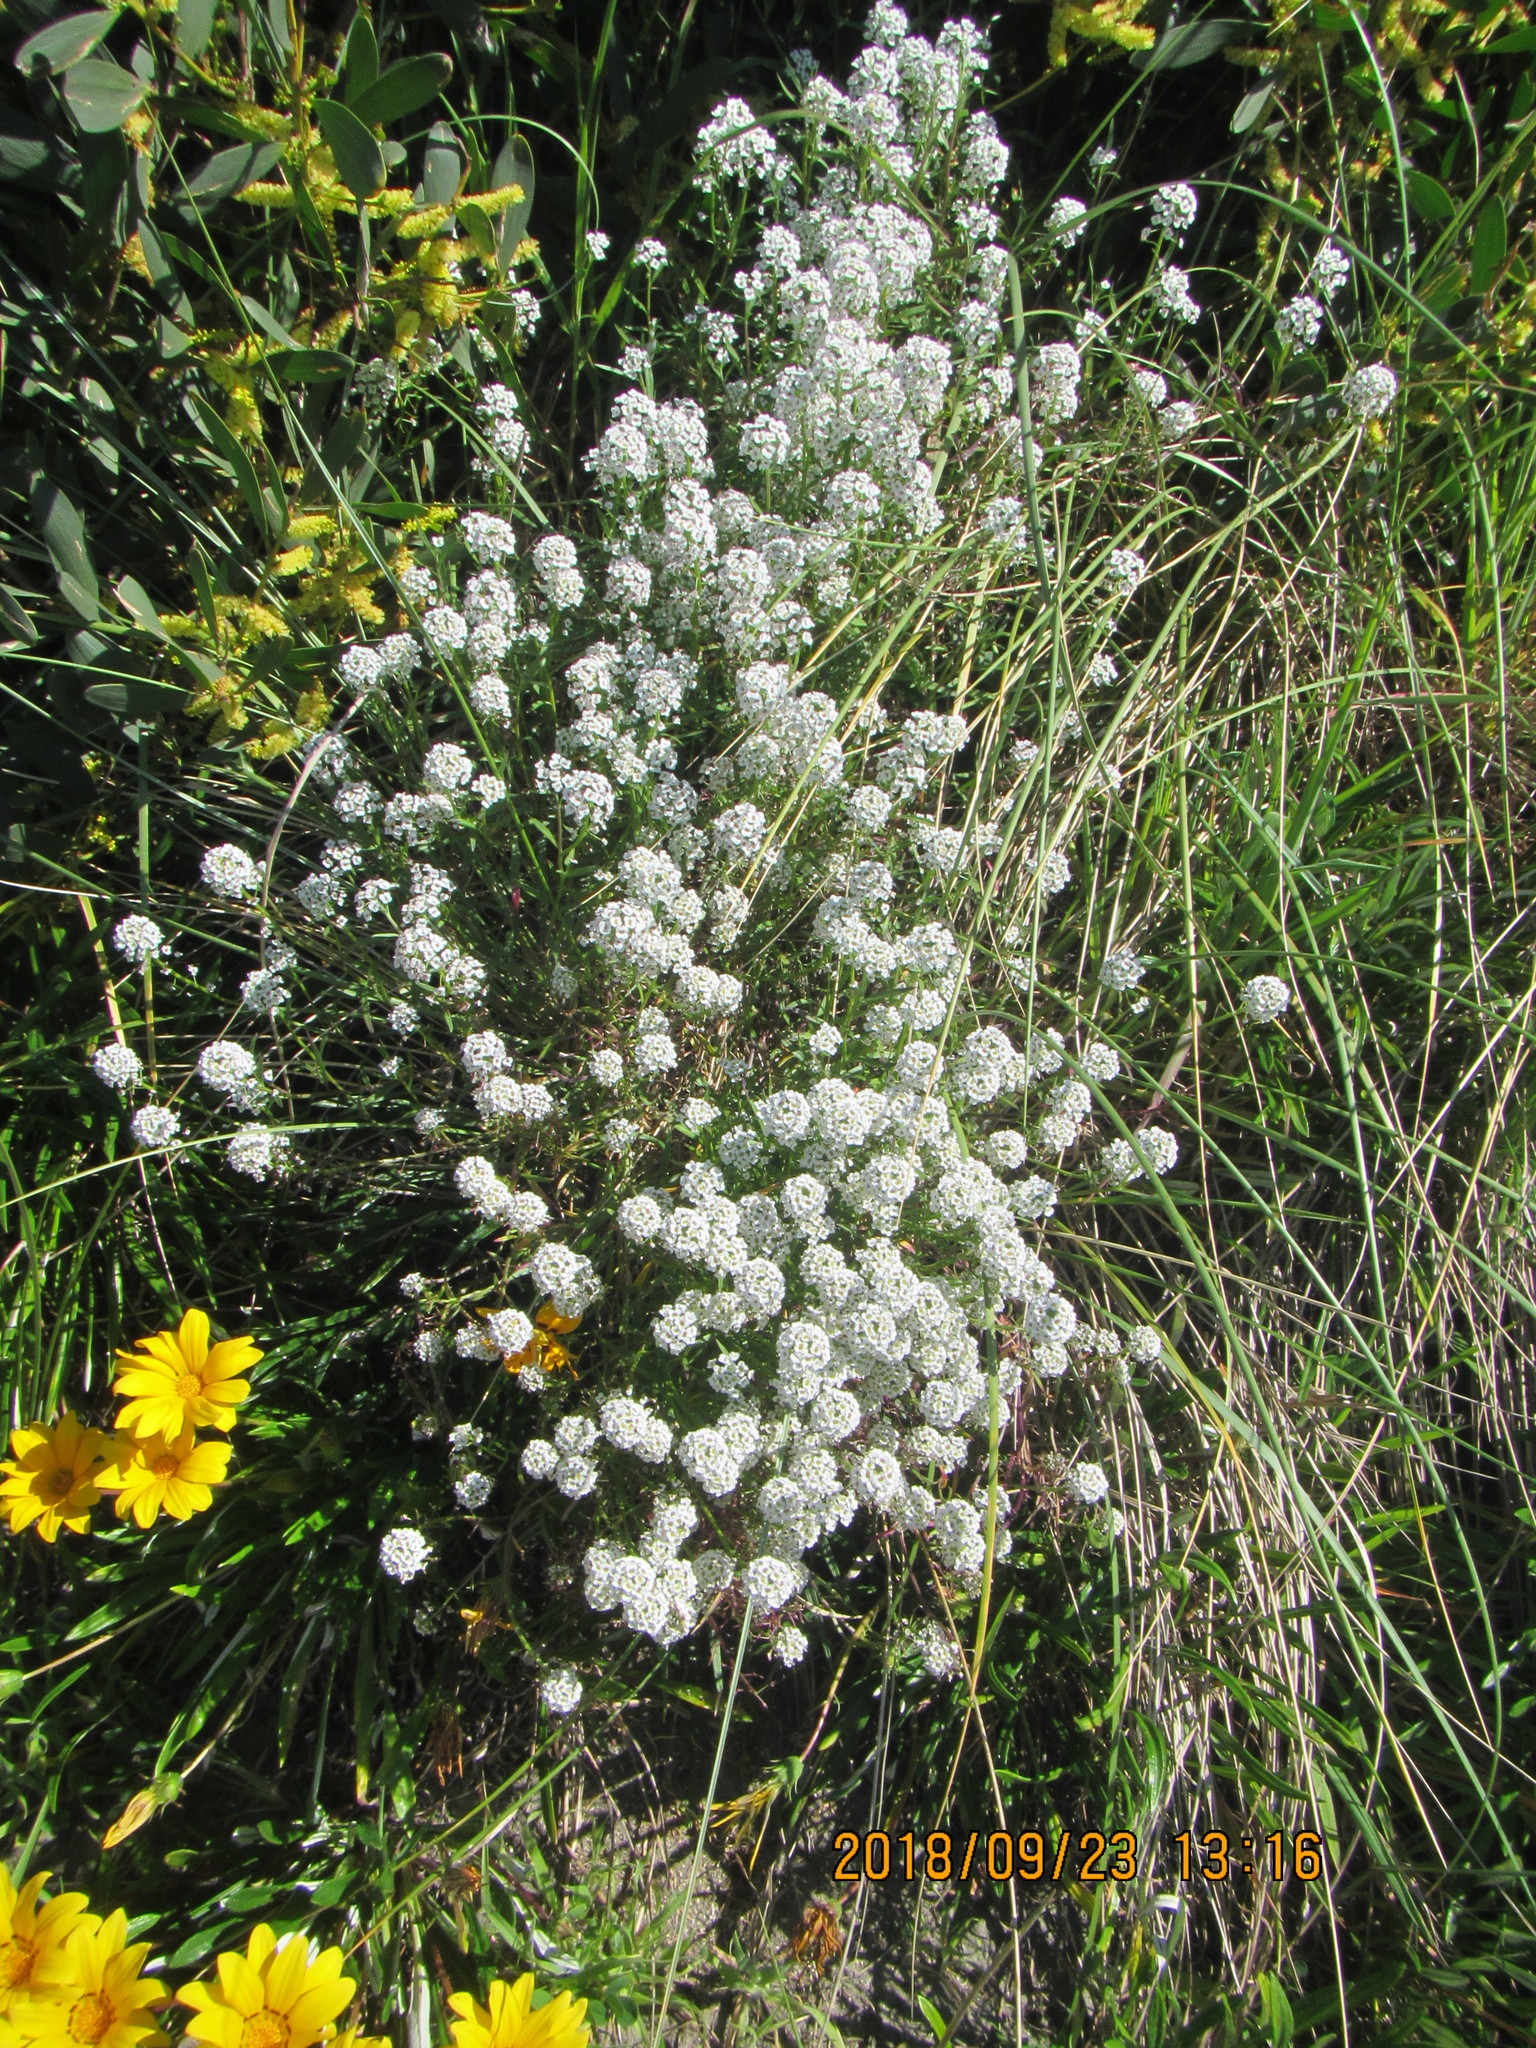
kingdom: Plantae
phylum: Tracheophyta
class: Magnoliopsida
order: Brassicales
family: Brassicaceae
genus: Lobularia
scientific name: Lobularia maritima
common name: Sweet alison
